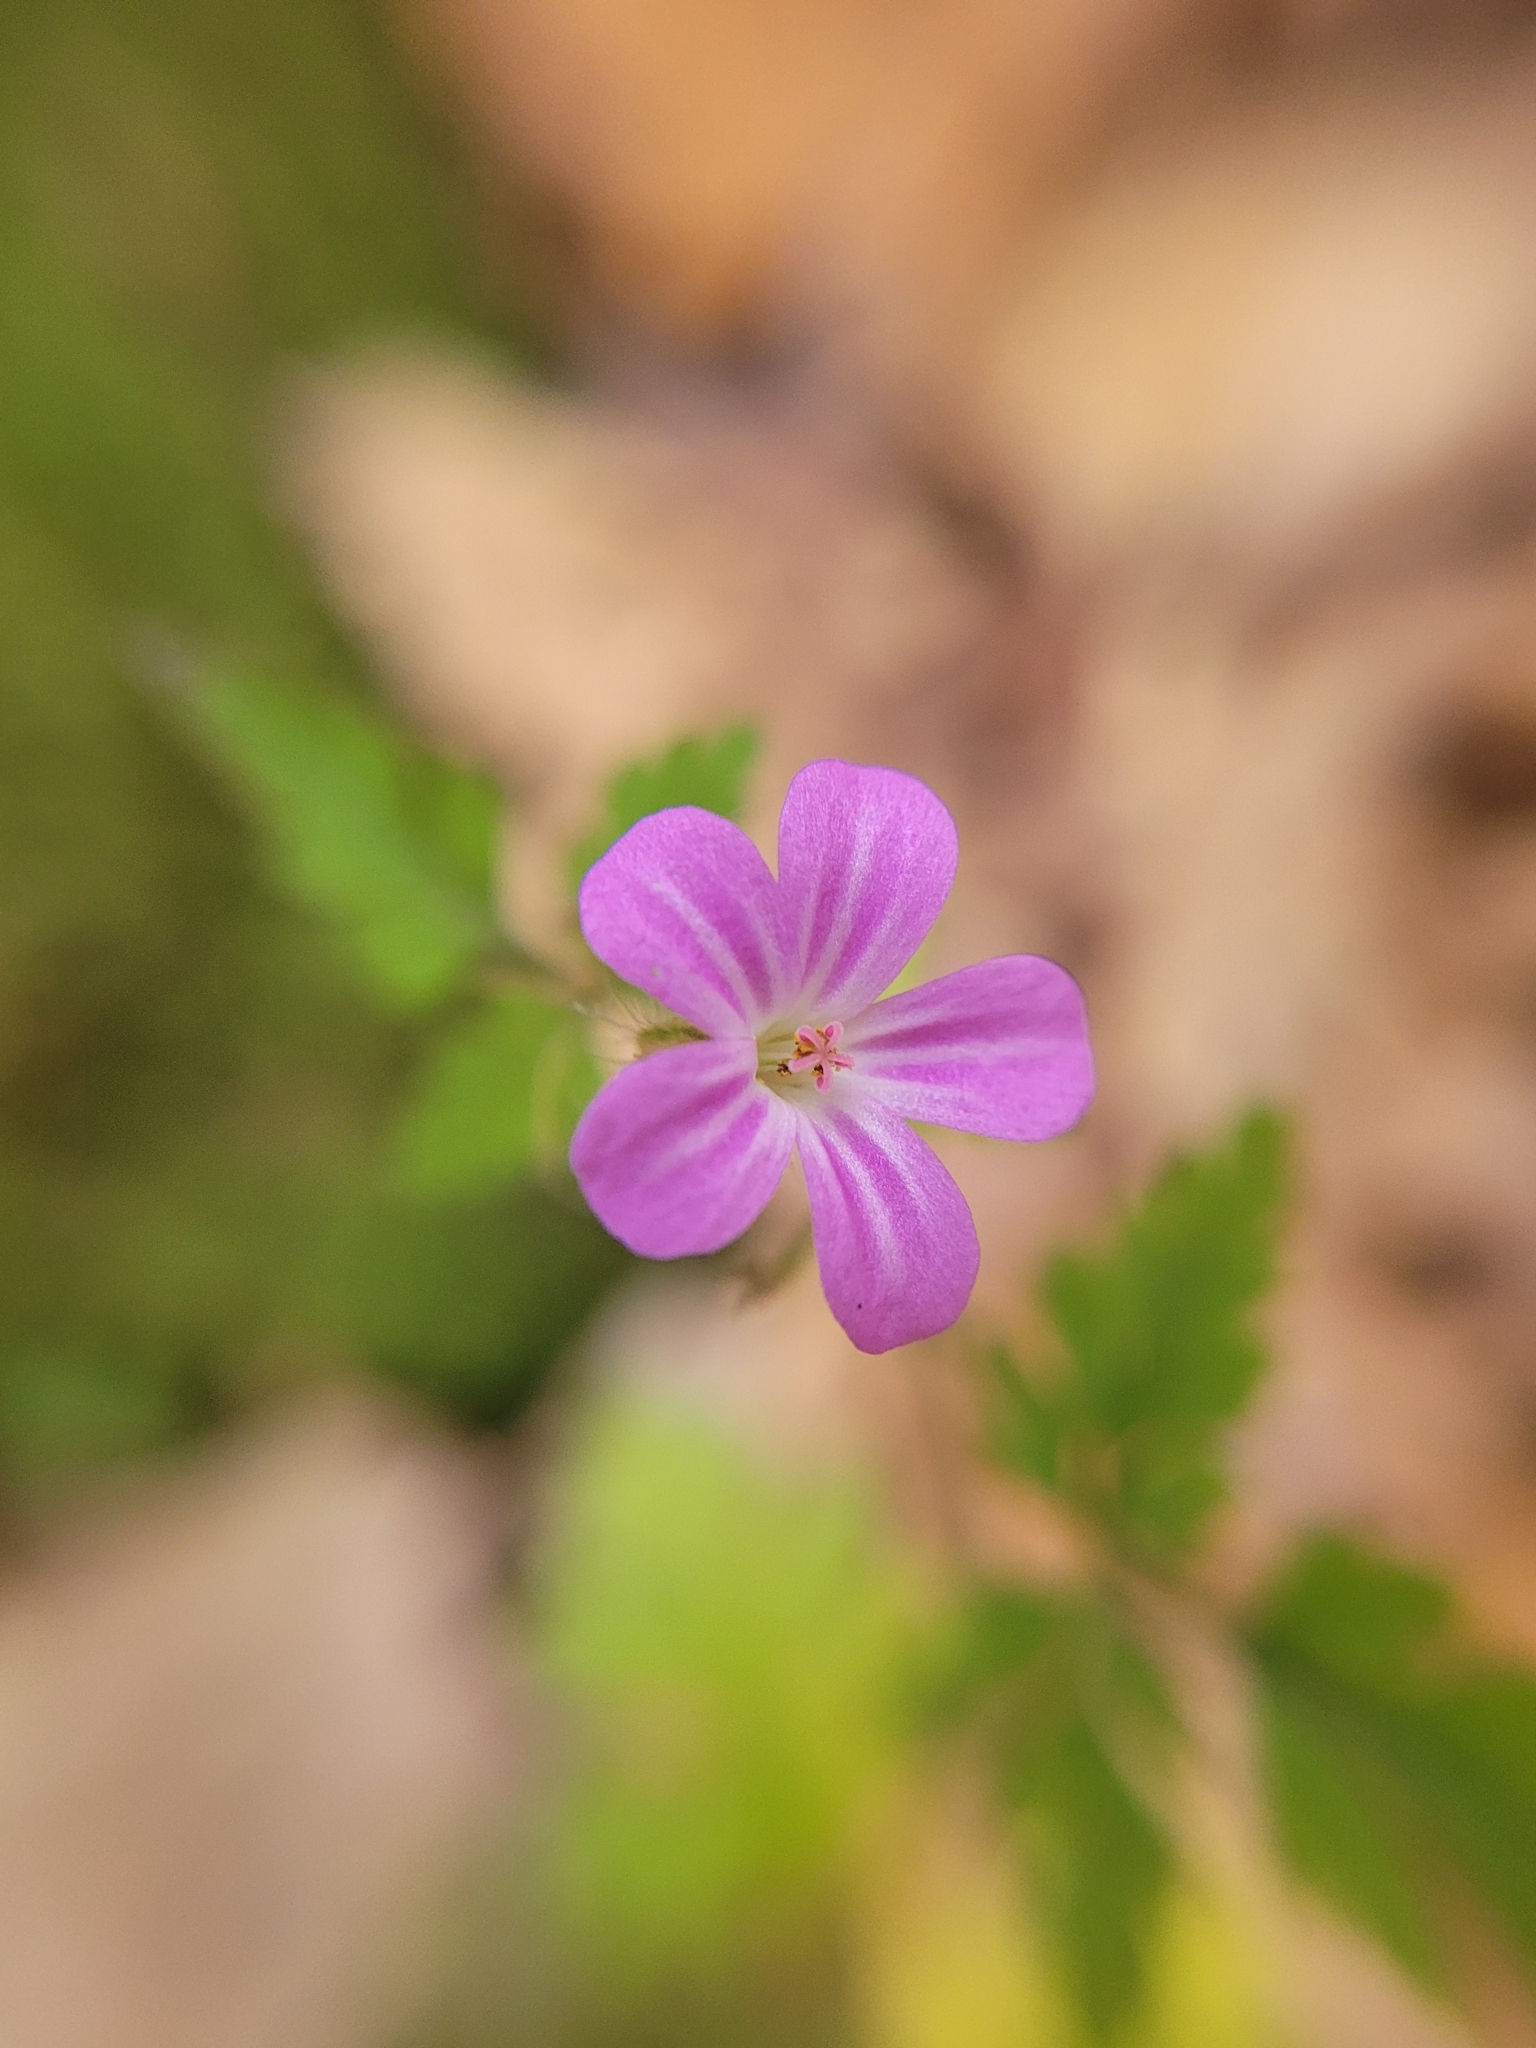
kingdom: Plantae
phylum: Tracheophyta
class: Magnoliopsida
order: Geraniales
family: Geraniaceae
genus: Geranium
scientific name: Geranium robertianum
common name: Herb-robert
